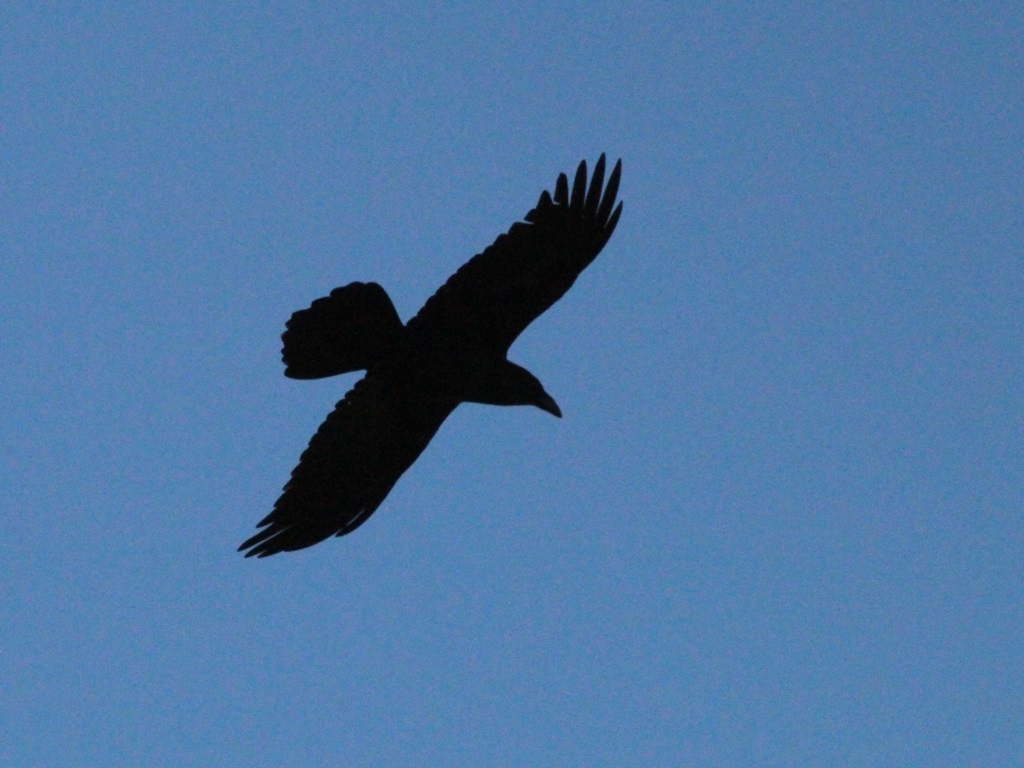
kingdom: Animalia
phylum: Chordata
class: Aves
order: Passeriformes
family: Corvidae
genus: Corvus
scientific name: Corvus corax
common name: Common raven
